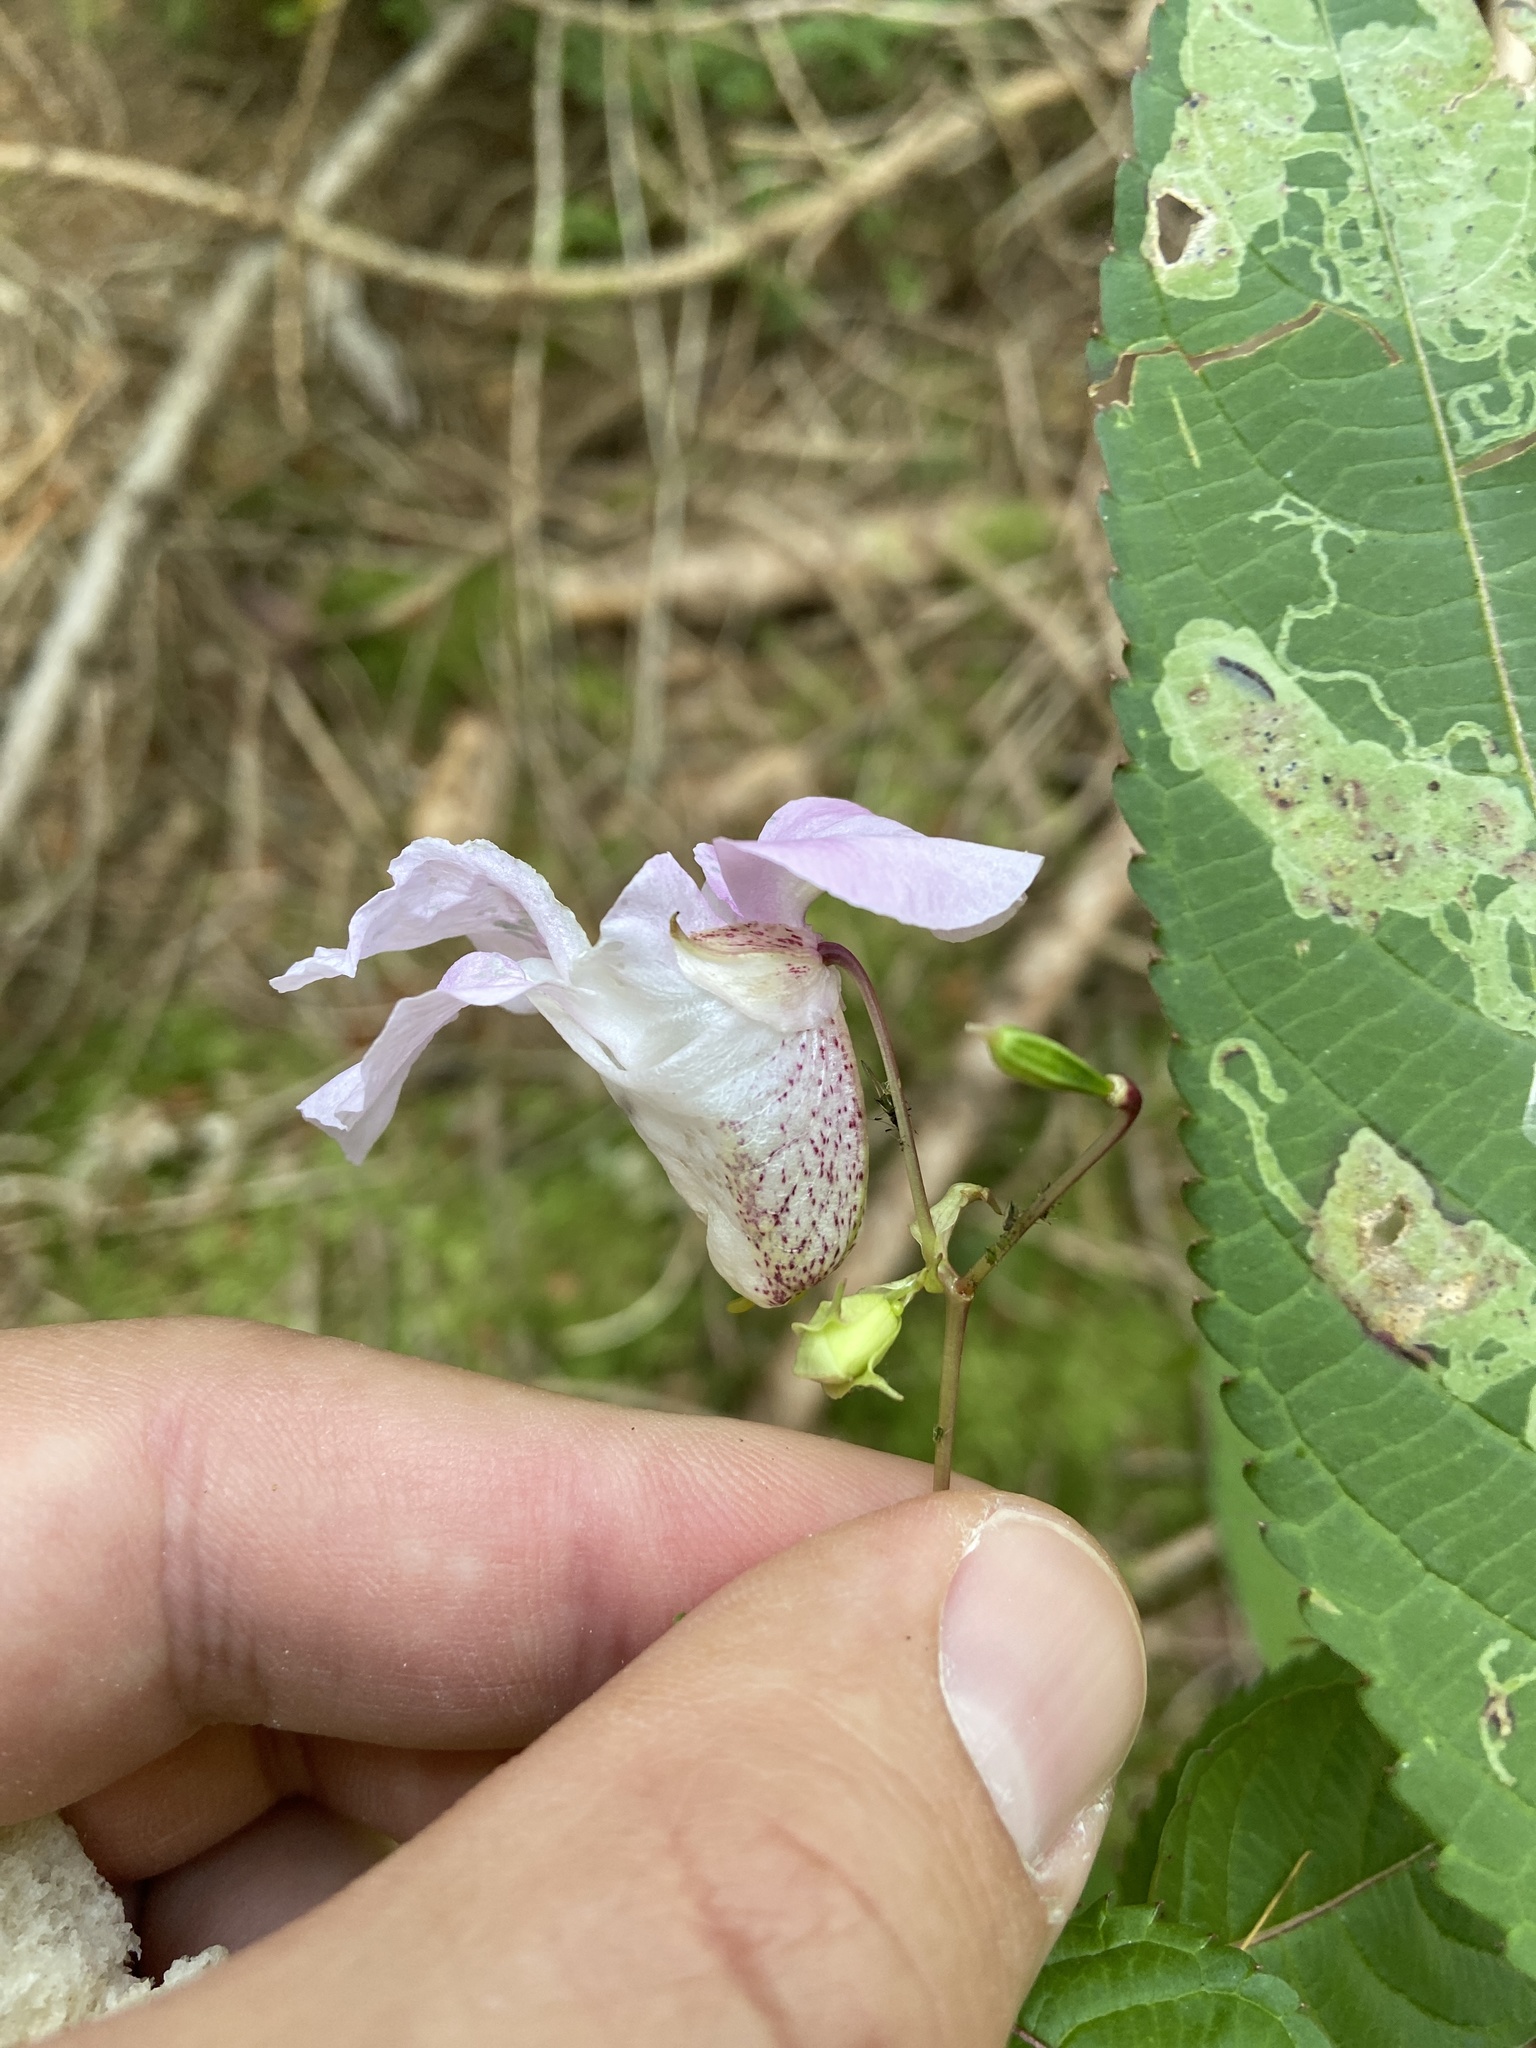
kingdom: Plantae
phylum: Tracheophyta
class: Magnoliopsida
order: Ericales
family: Balsaminaceae
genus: Impatiens
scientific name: Impatiens glandulifera
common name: Himalayan balsam
